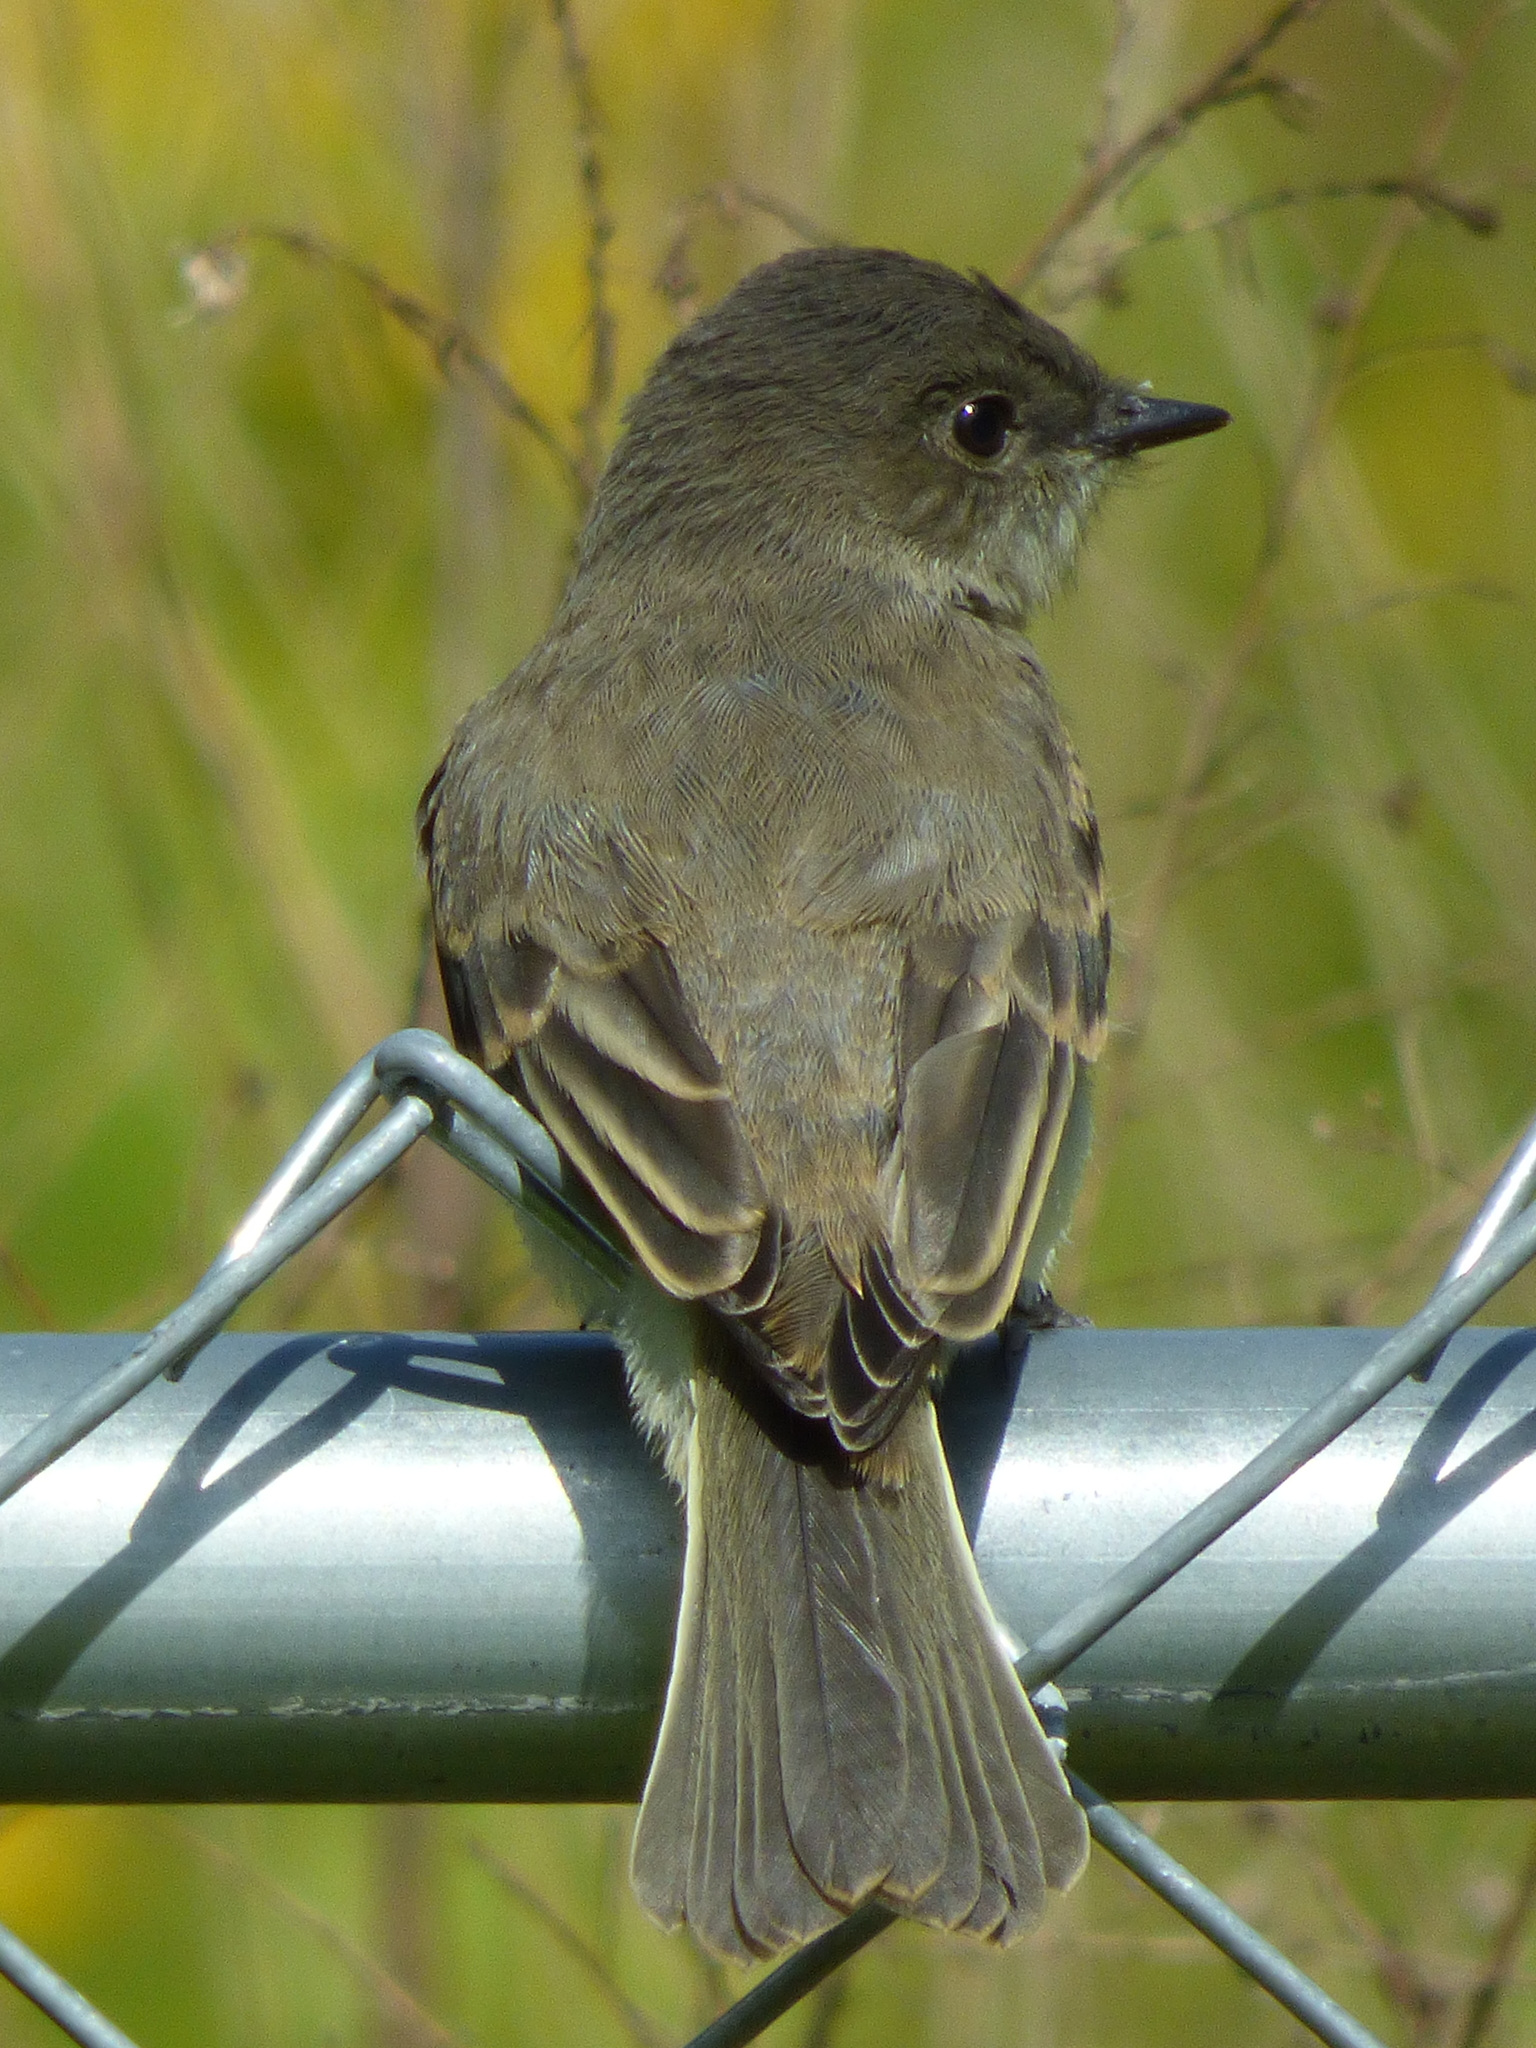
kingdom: Animalia
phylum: Chordata
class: Aves
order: Passeriformes
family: Tyrannidae
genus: Sayornis
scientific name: Sayornis phoebe
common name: Eastern phoebe
